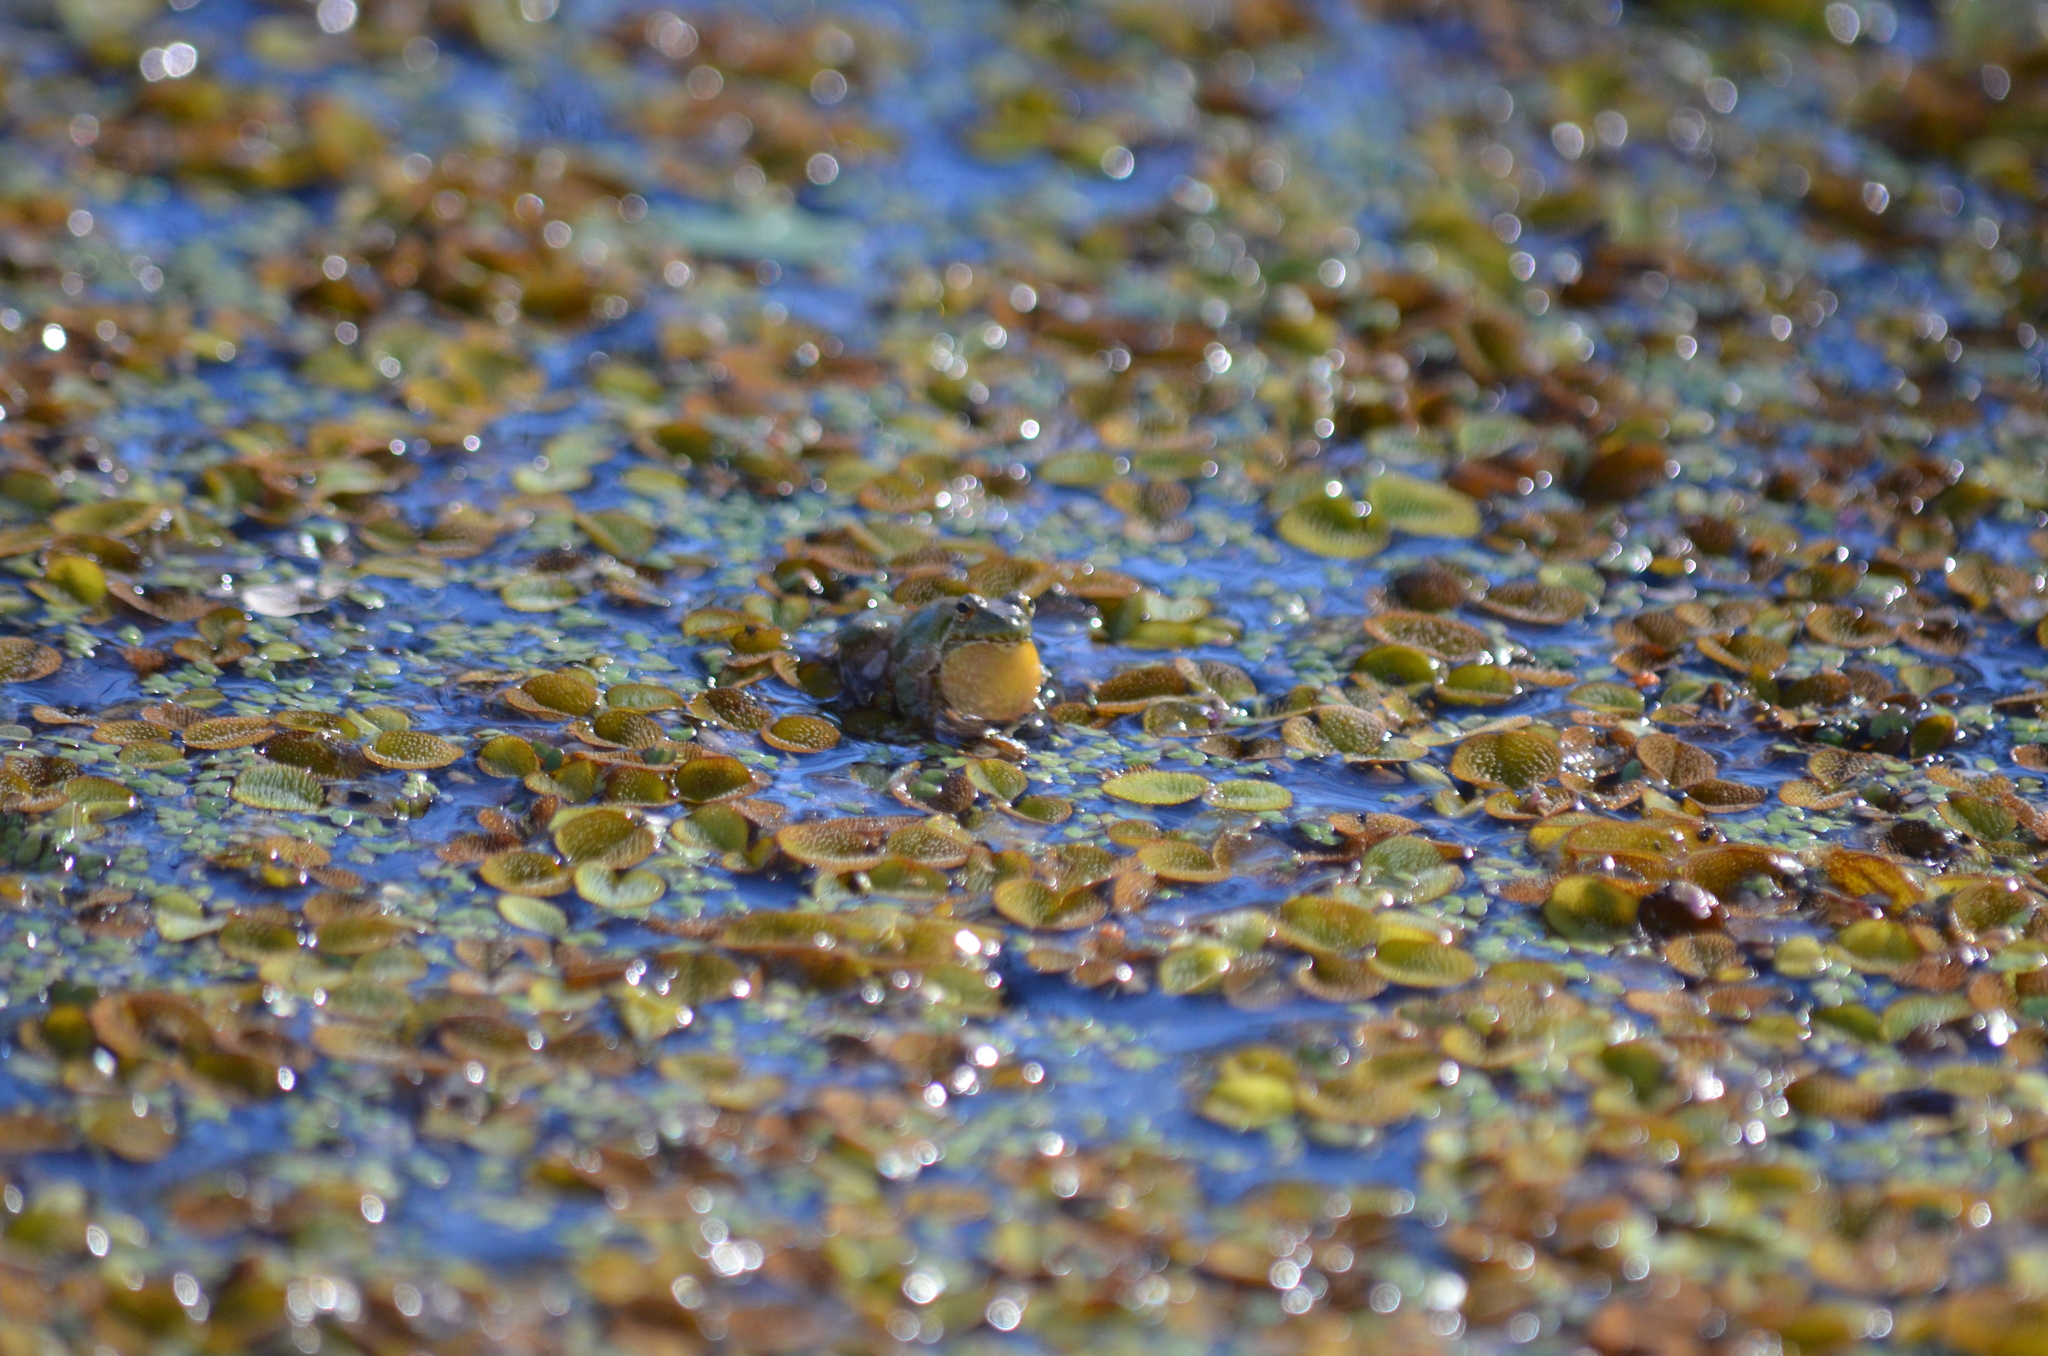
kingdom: Animalia
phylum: Chordata
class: Amphibia
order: Anura
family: Hylidae
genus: Acris
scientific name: Acris blanchardi
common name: Blanchard's cricket frog
